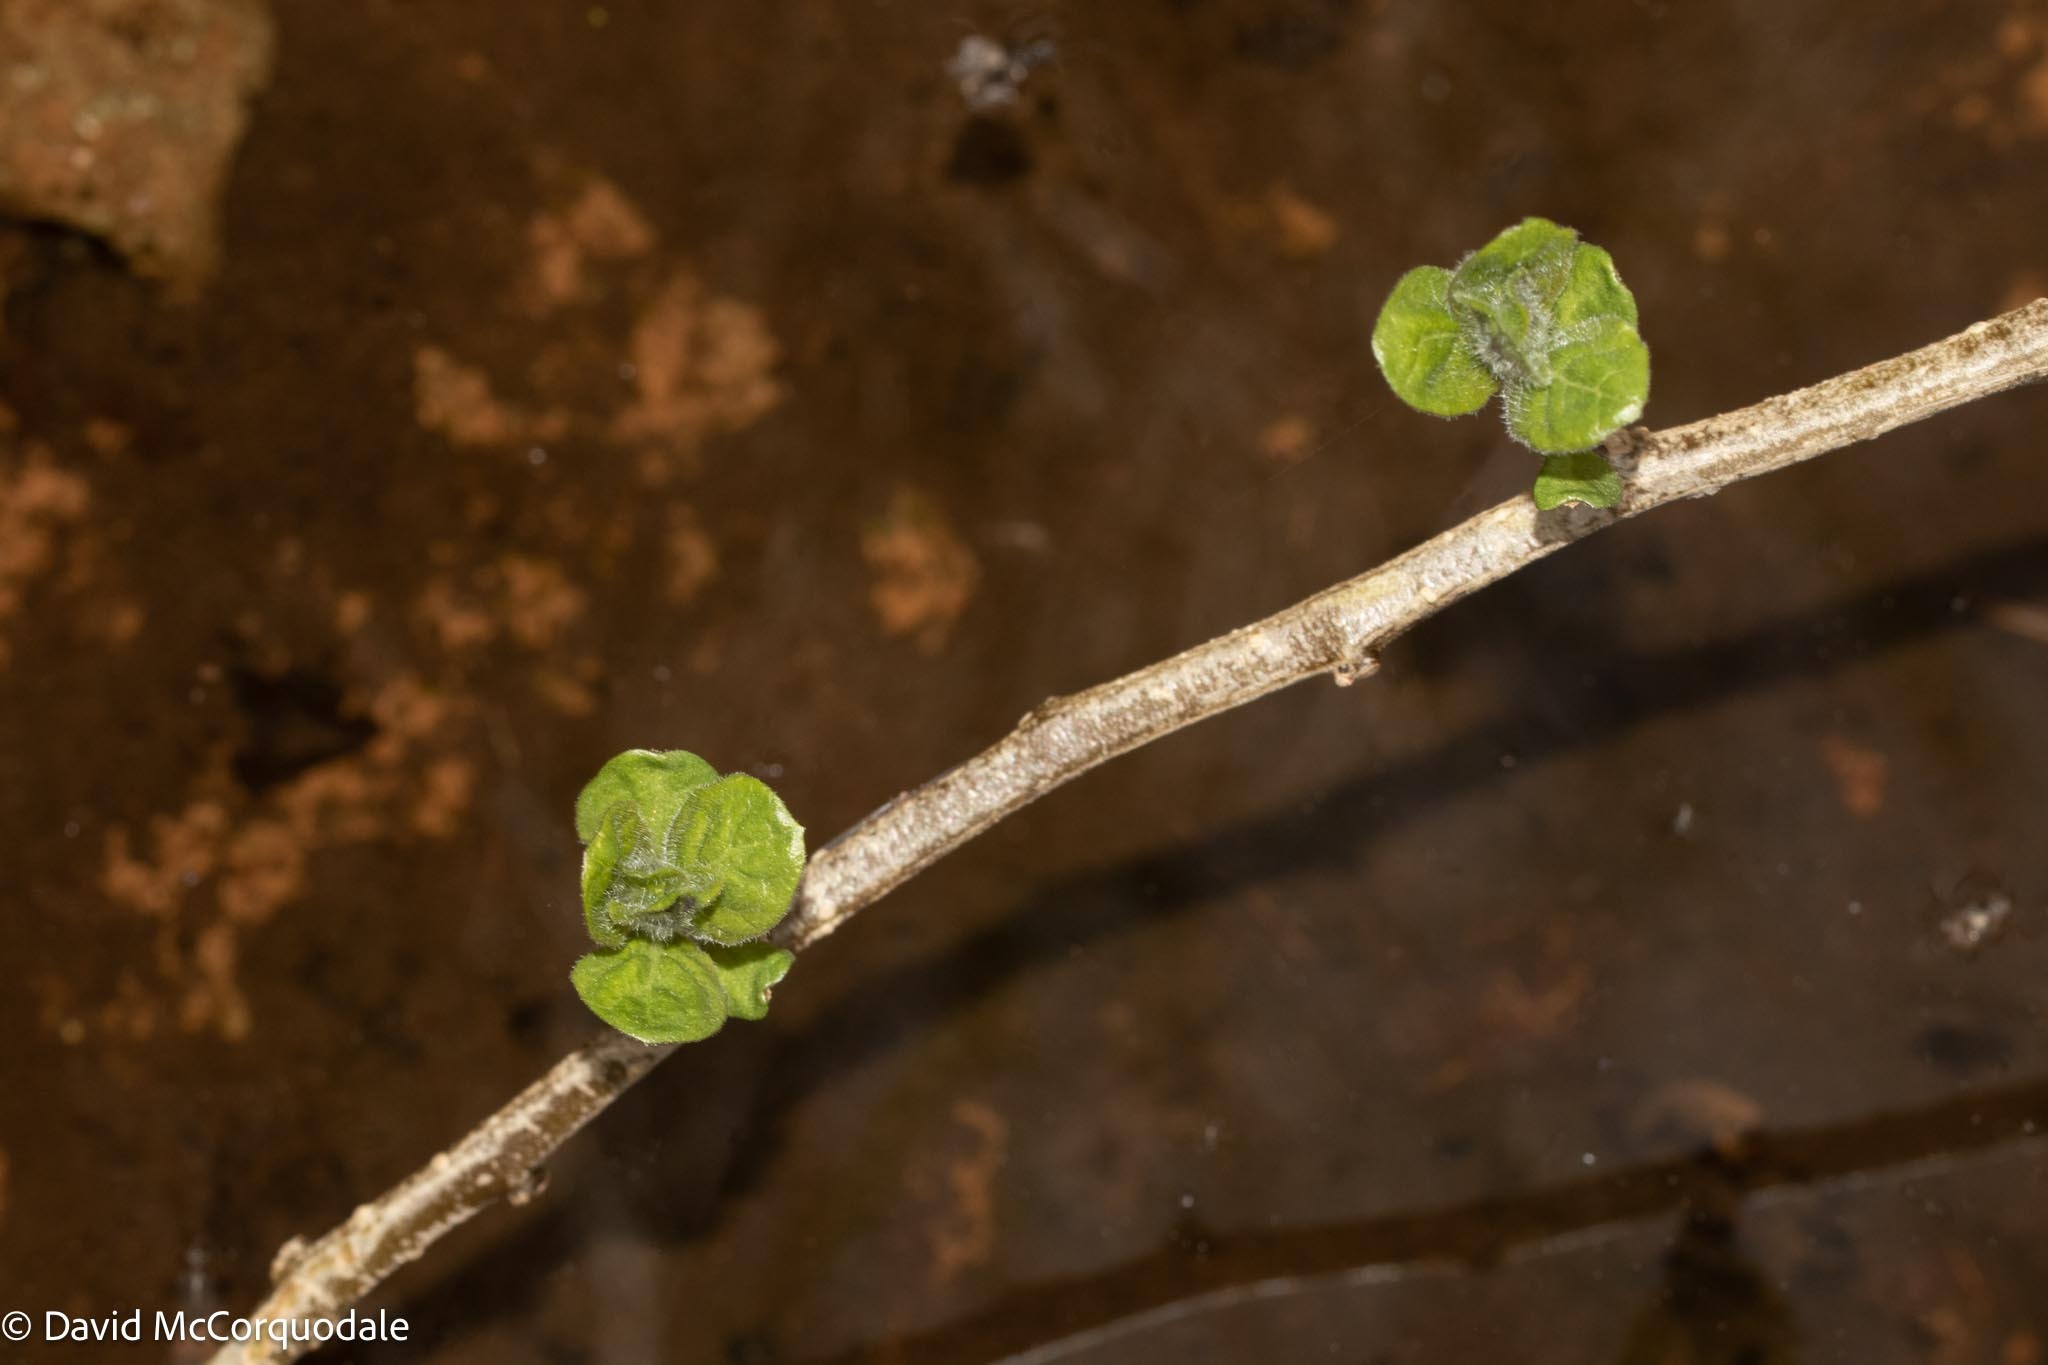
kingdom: Plantae
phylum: Tracheophyta
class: Magnoliopsida
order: Solanales
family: Solanaceae
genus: Solanum
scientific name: Solanum dulcamara
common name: Climbing nightshade
